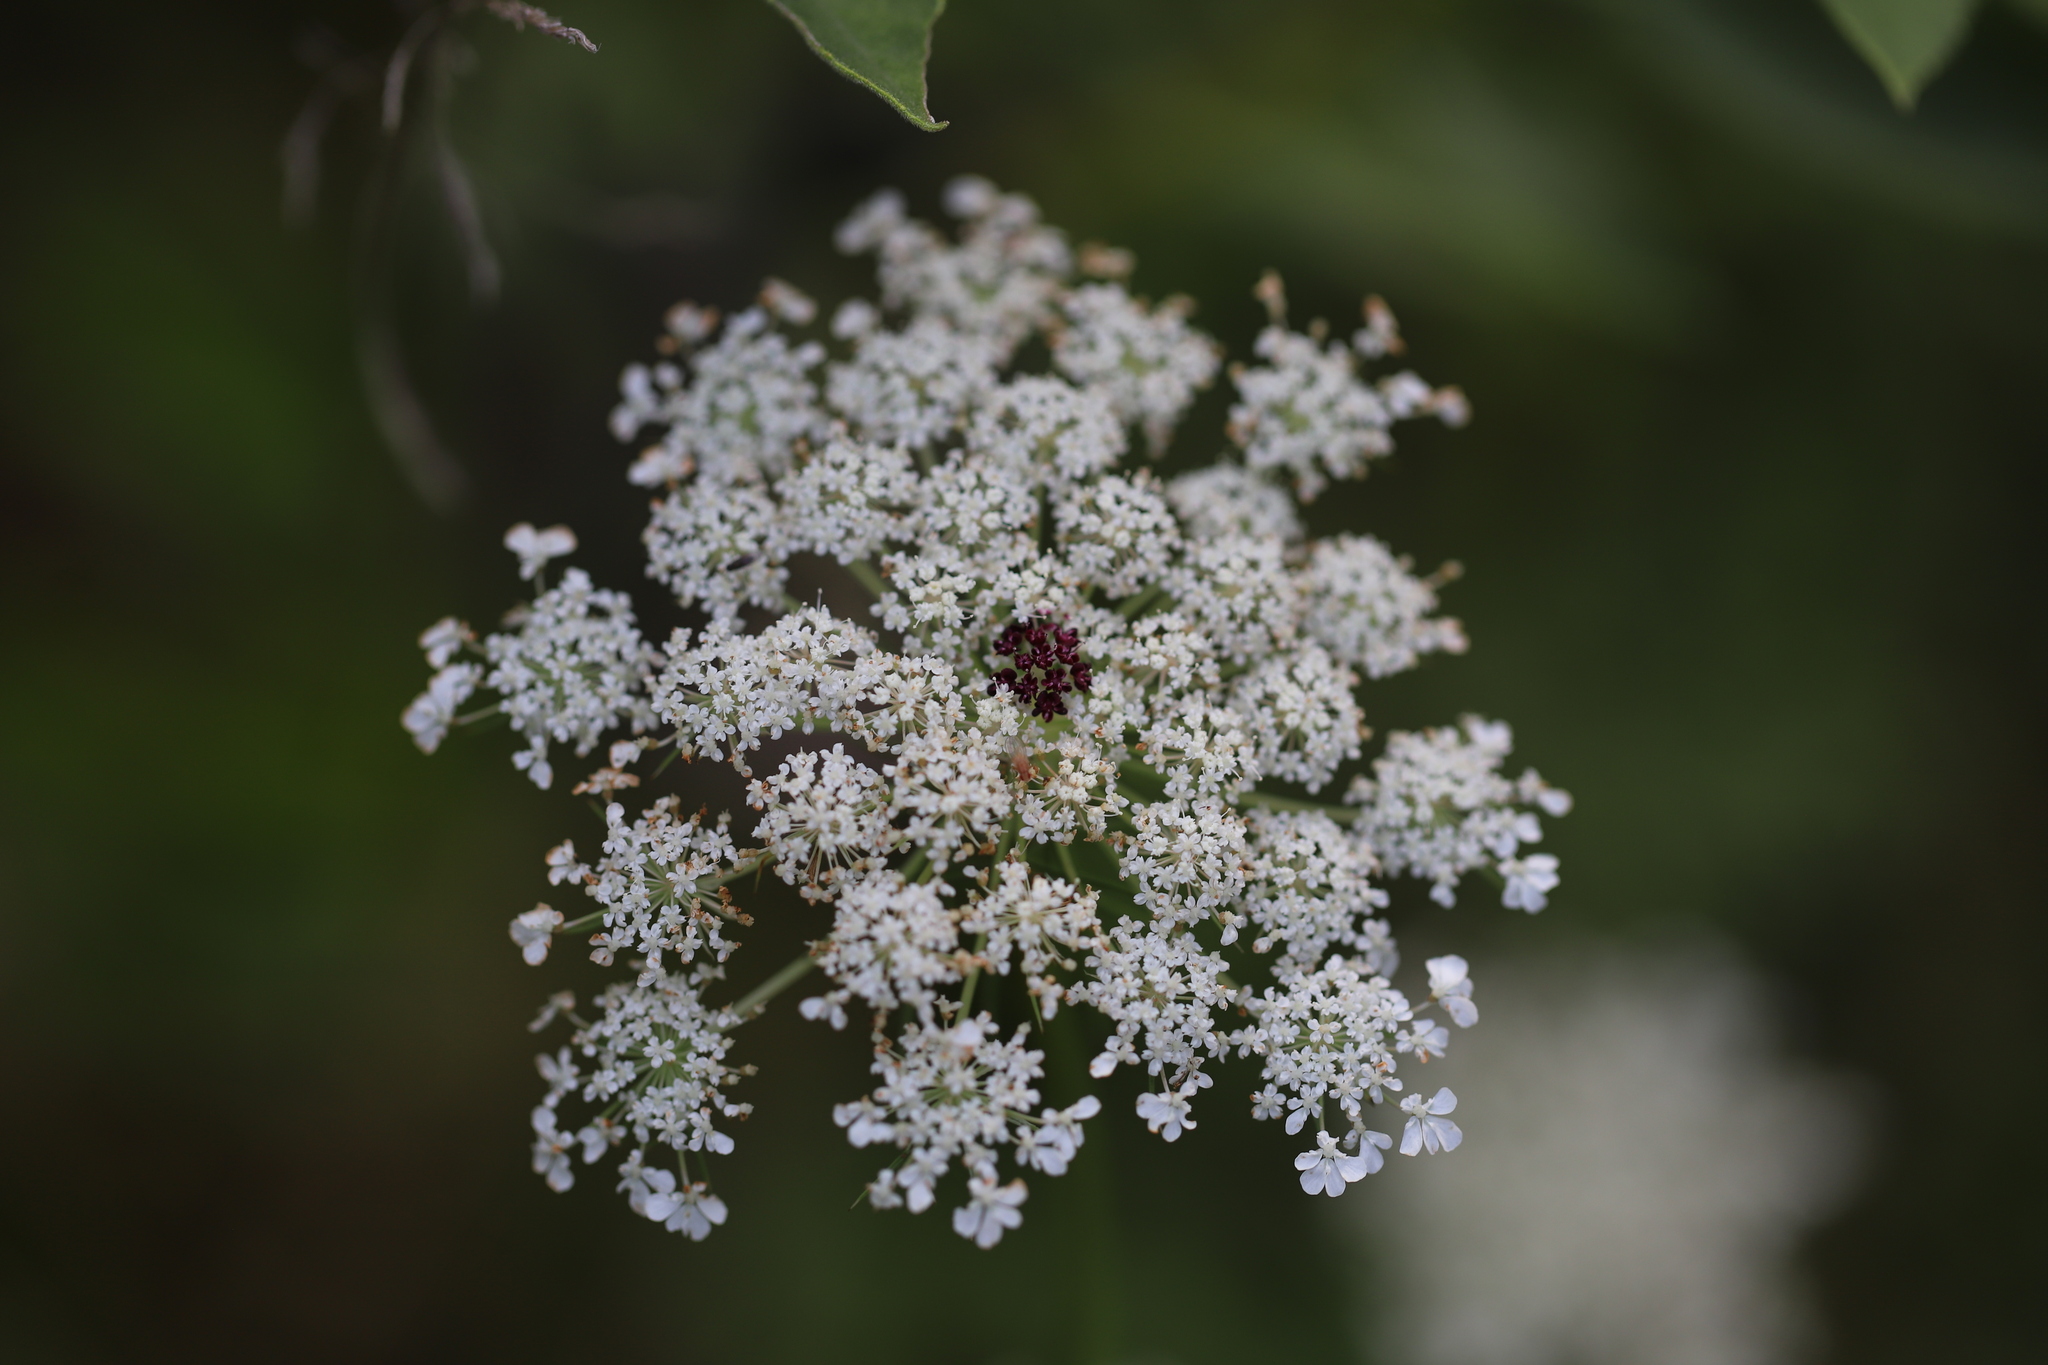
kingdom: Plantae
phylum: Tracheophyta
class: Magnoliopsida
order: Apiales
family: Apiaceae
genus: Daucus
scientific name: Daucus carota
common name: Wild carrot
